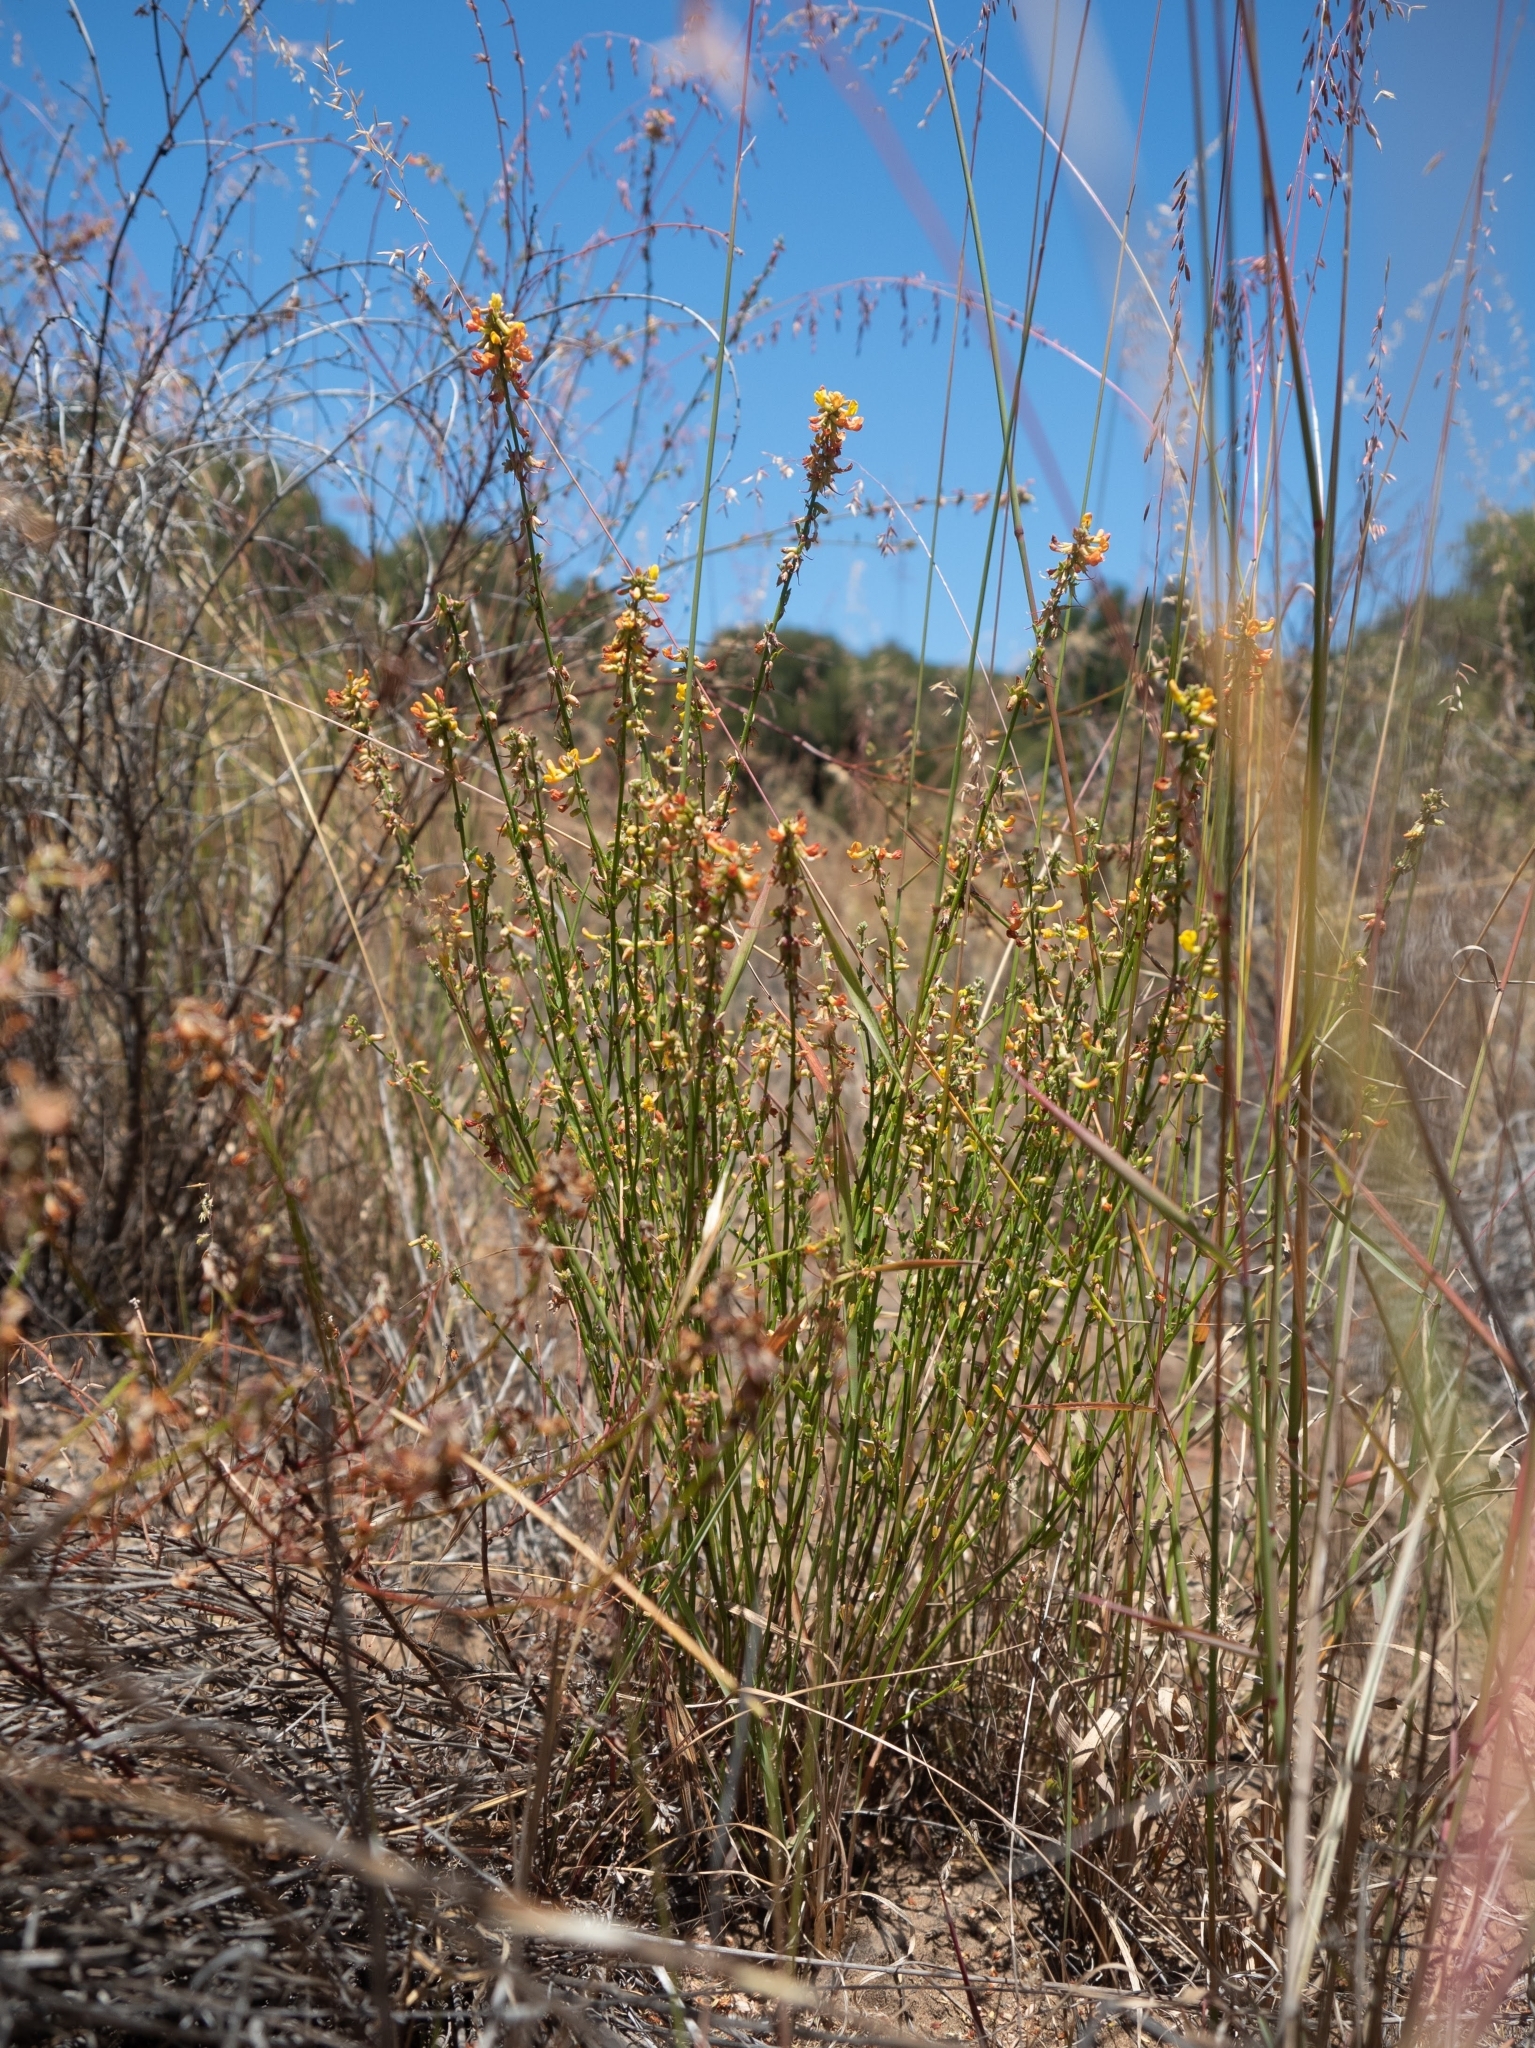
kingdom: Plantae
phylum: Tracheophyta
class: Magnoliopsida
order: Fabales
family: Fabaceae
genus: Acmispon
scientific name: Acmispon glaber
